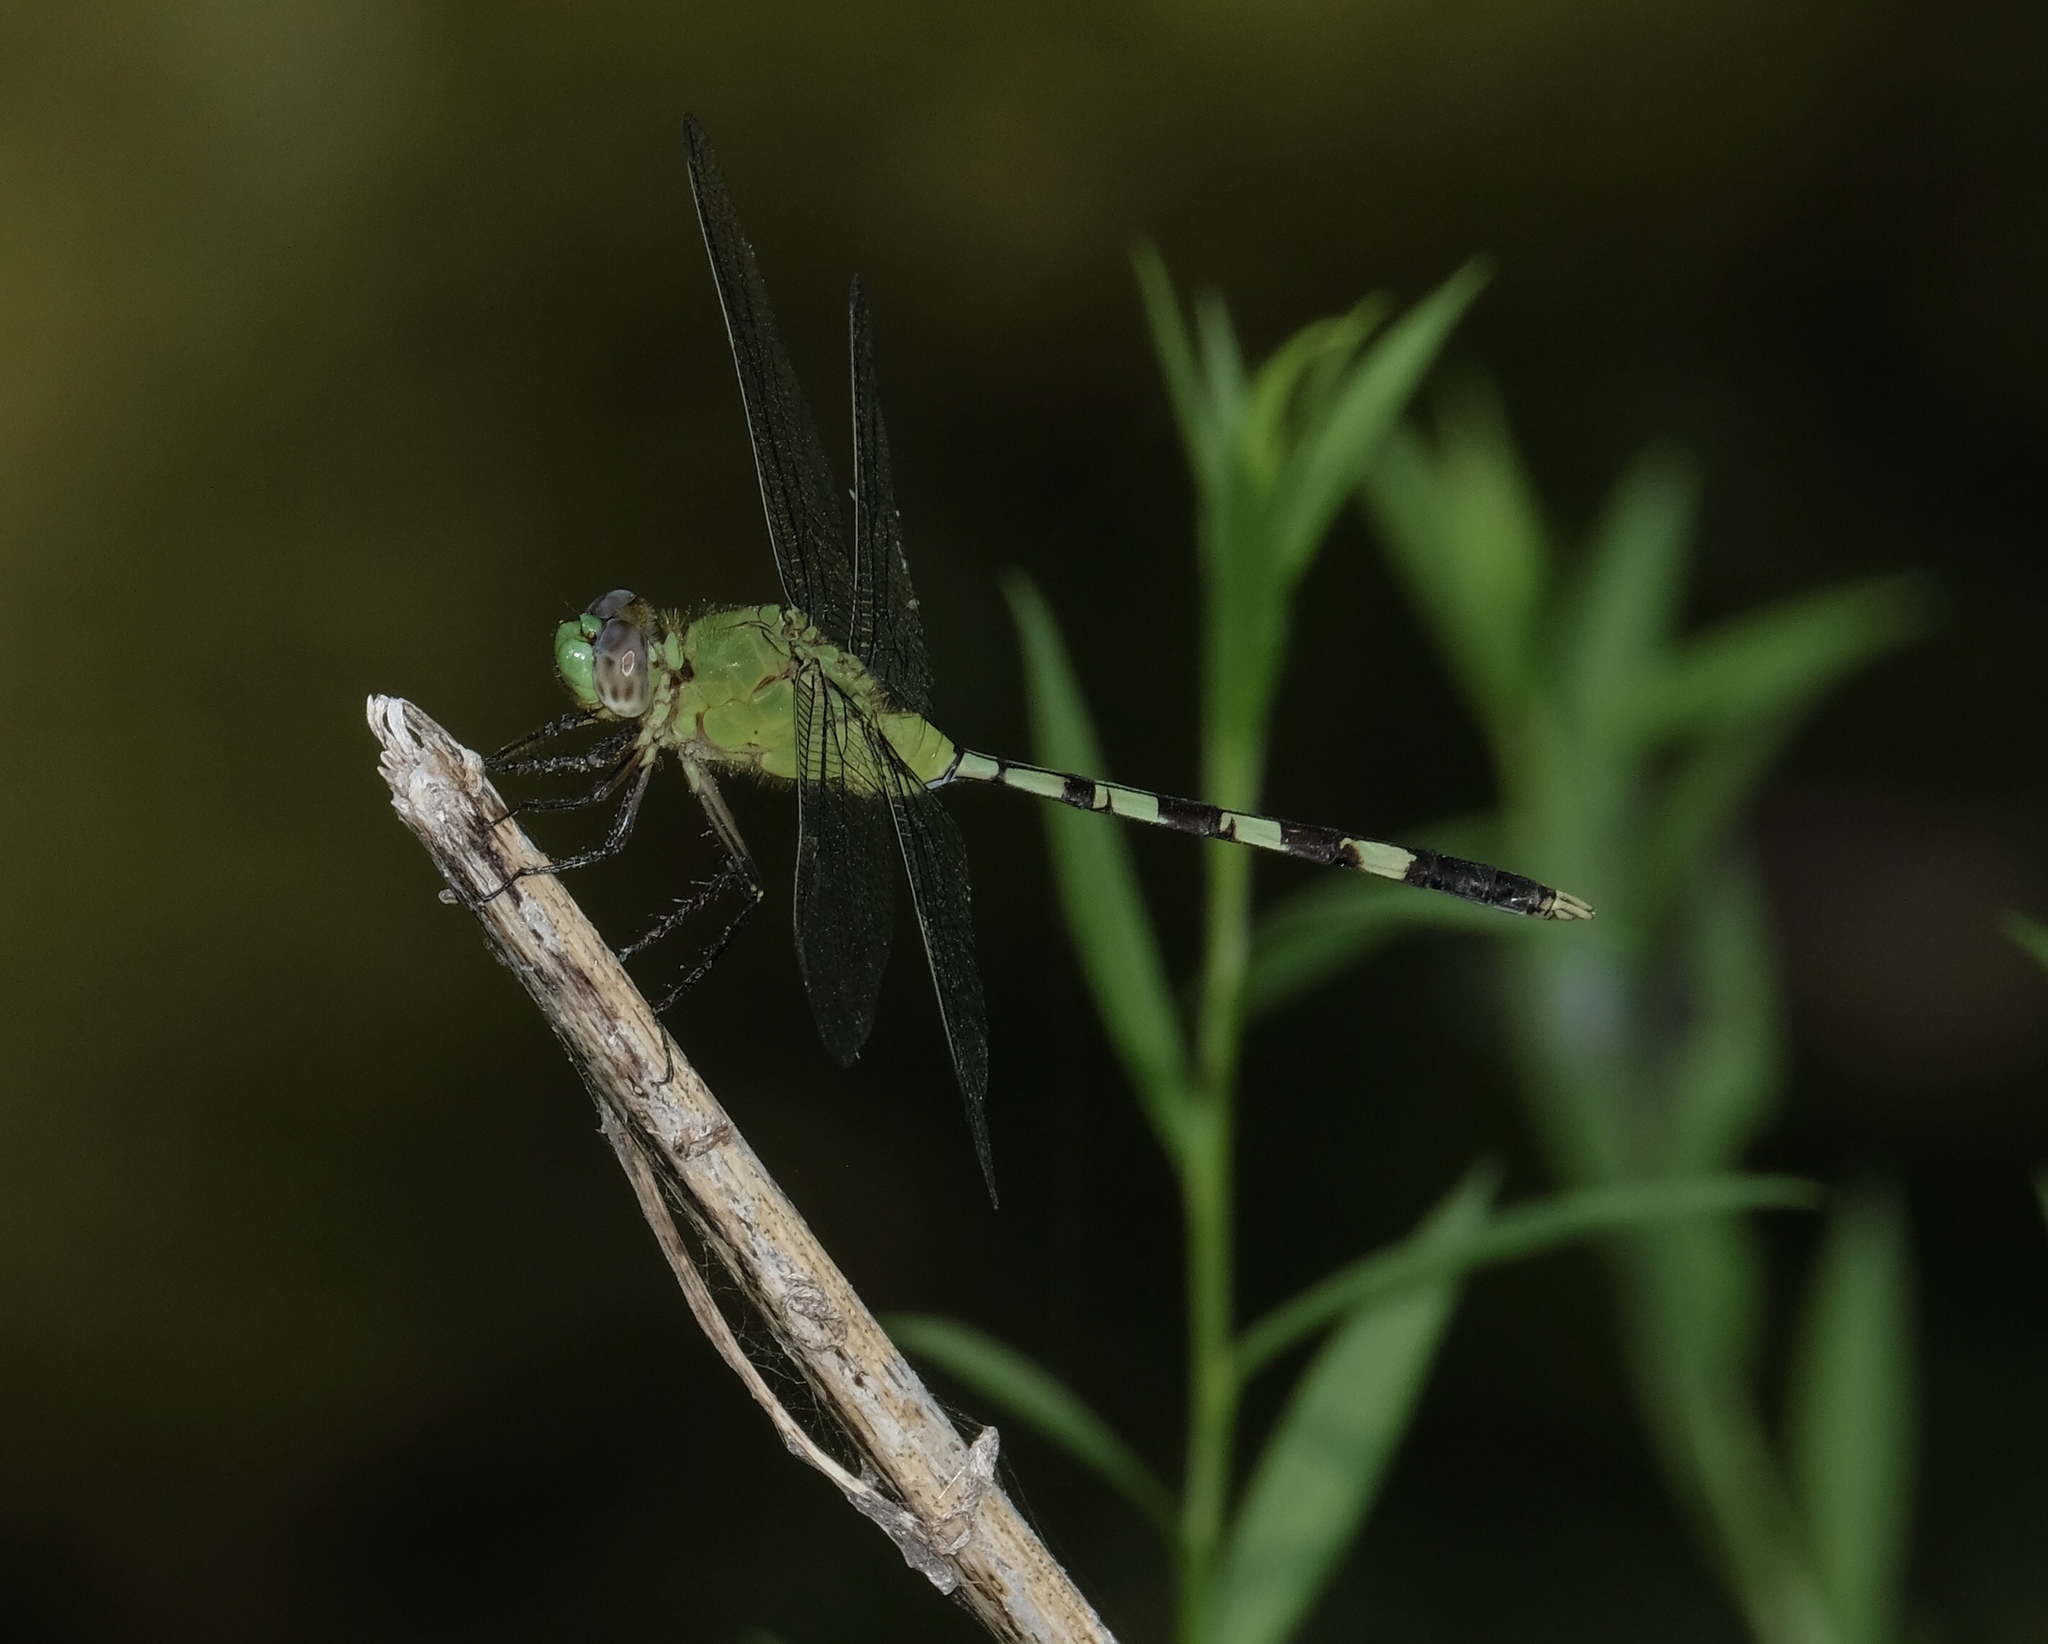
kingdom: Animalia
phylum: Arthropoda
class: Insecta
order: Odonata
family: Libellulidae
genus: Erythemis
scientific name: Erythemis vesiculosa
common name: Great pondhawk
